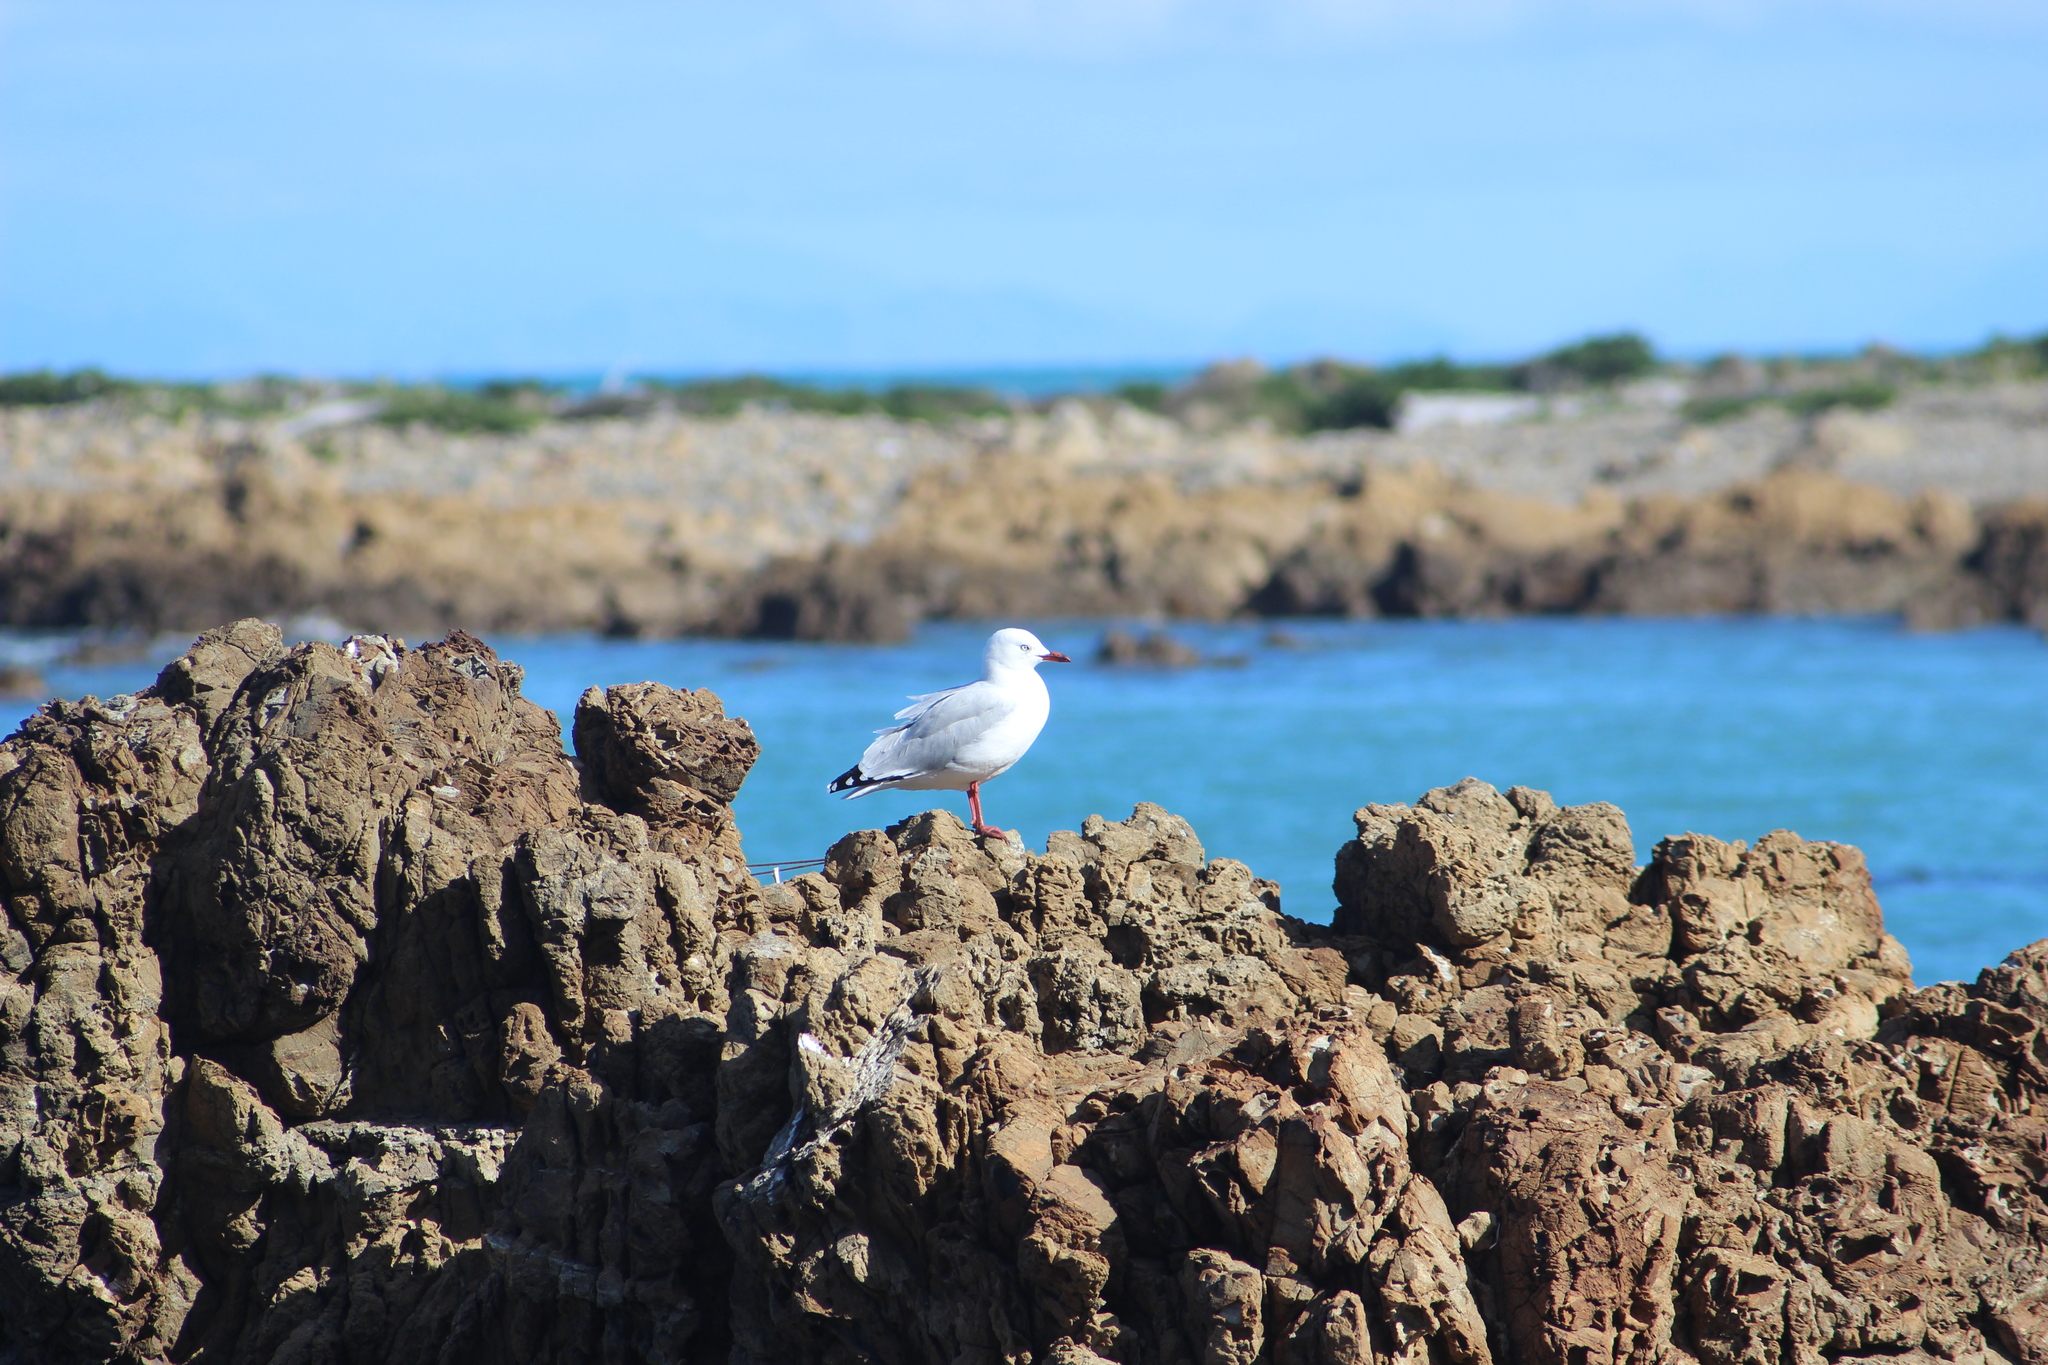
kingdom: Animalia
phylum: Chordata
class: Aves
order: Charadriiformes
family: Laridae
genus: Chroicocephalus
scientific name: Chroicocephalus novaehollandiae
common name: Silver gull
